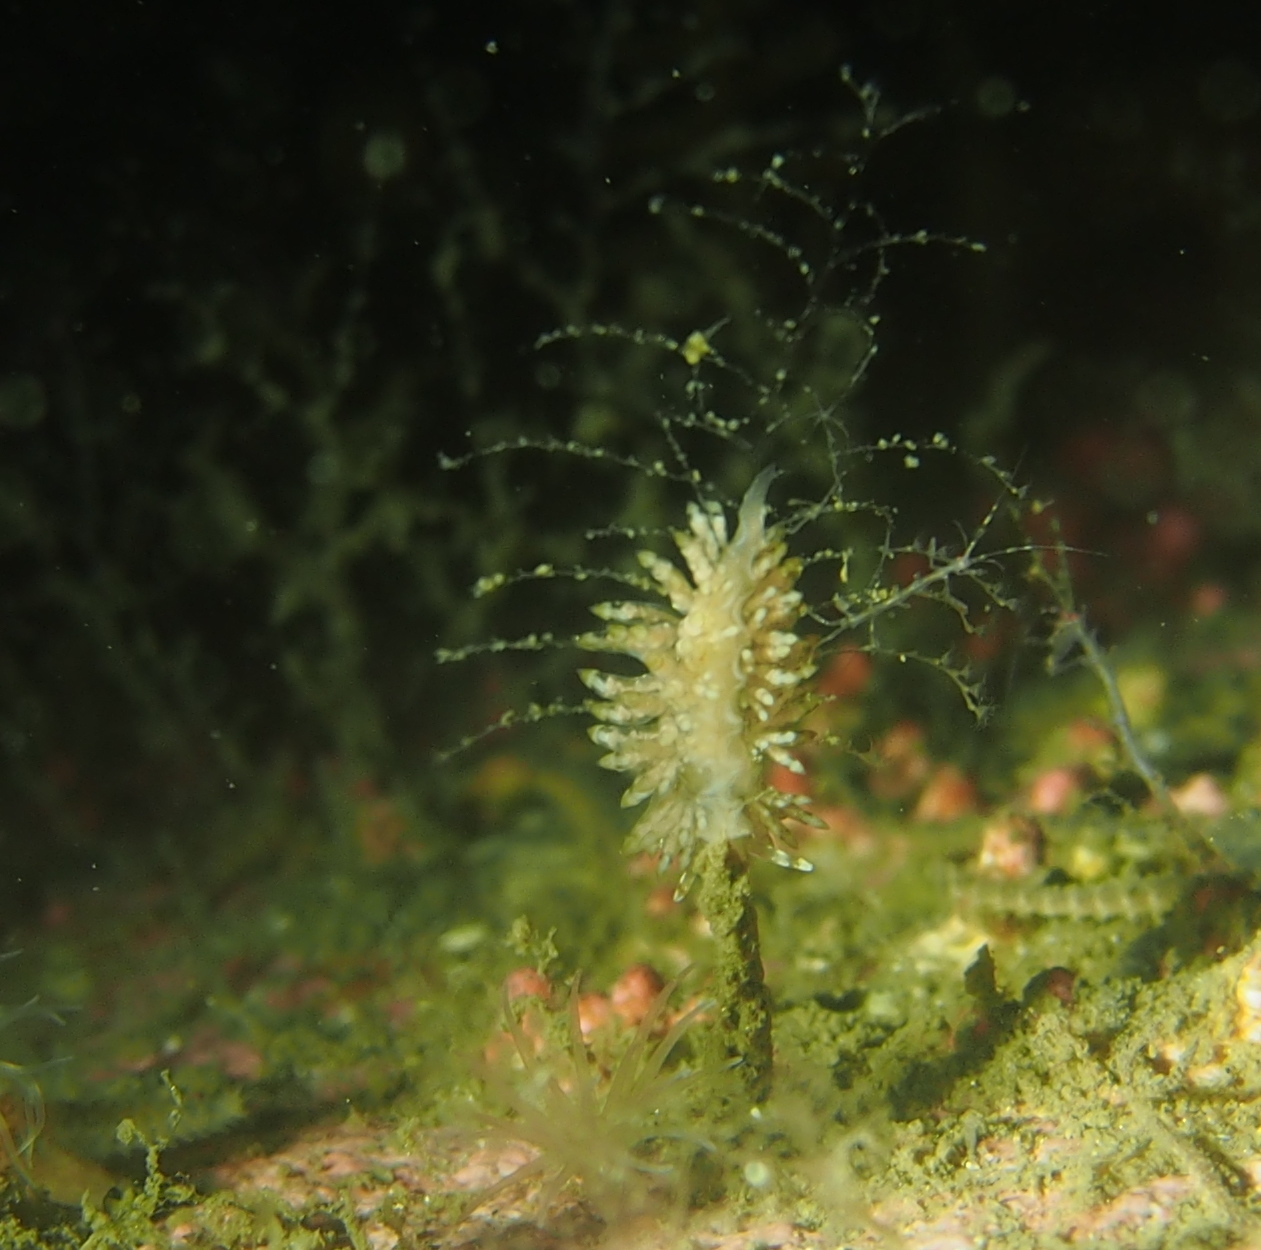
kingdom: Animalia
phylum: Mollusca
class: Gastropoda
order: Nudibranchia
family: Eubranchidae
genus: Eubranchus
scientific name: Eubranchus vittatus
